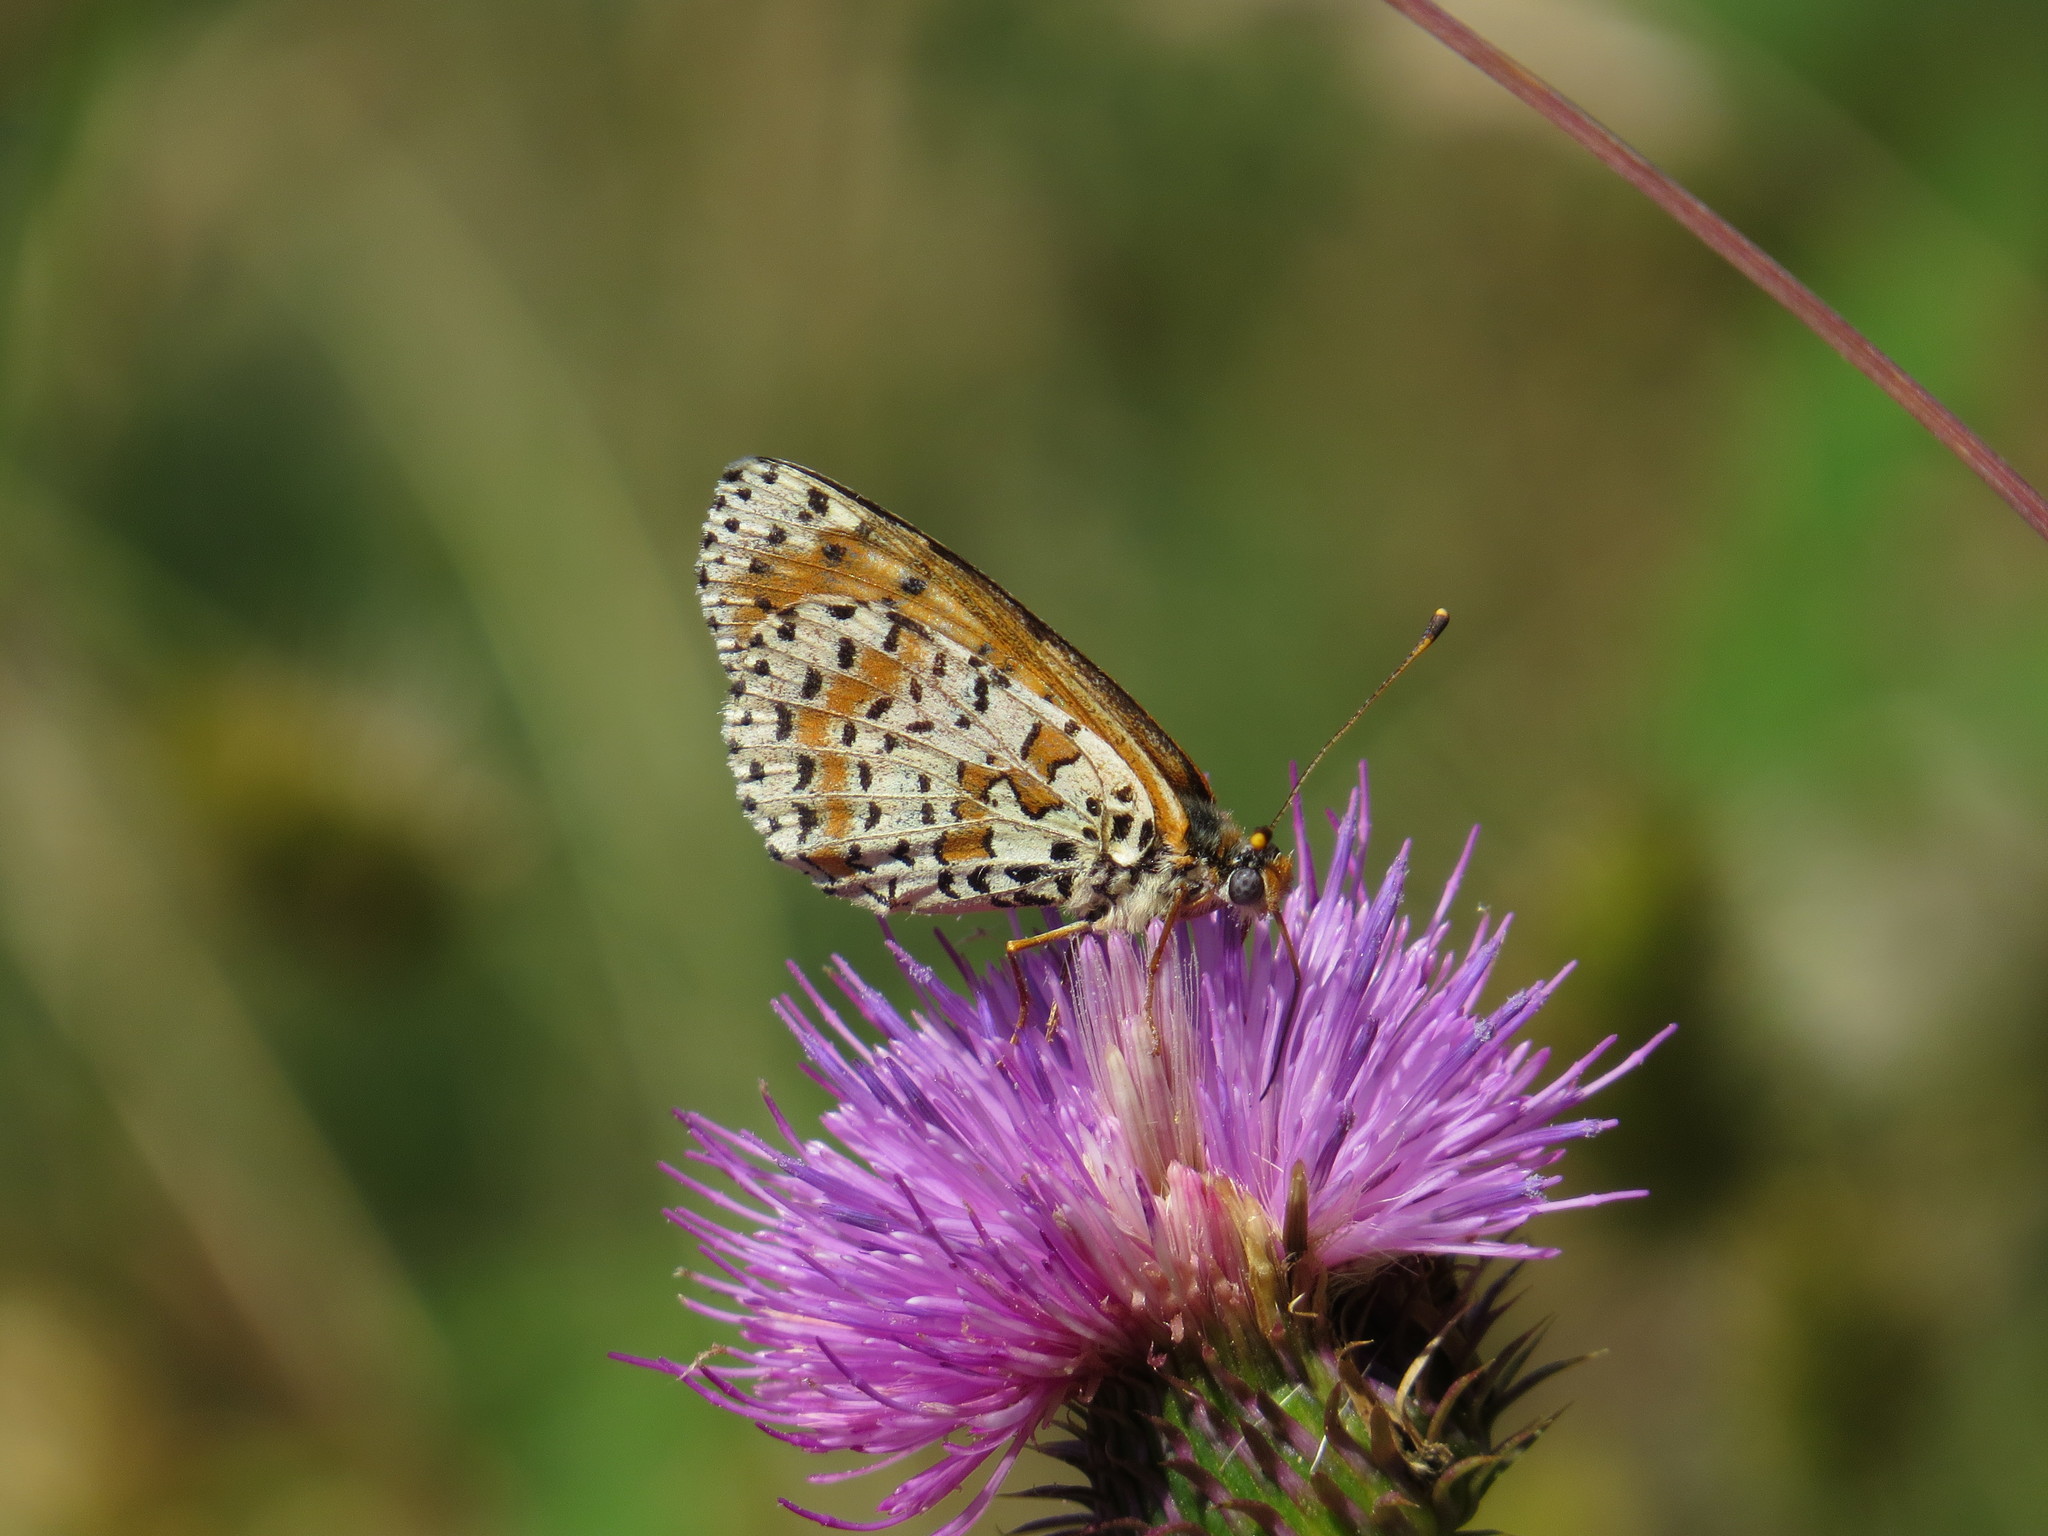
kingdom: Animalia
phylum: Arthropoda
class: Insecta
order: Lepidoptera
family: Nymphalidae
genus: Melitaea
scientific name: Melitaea didyma
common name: Spotted fritillary
